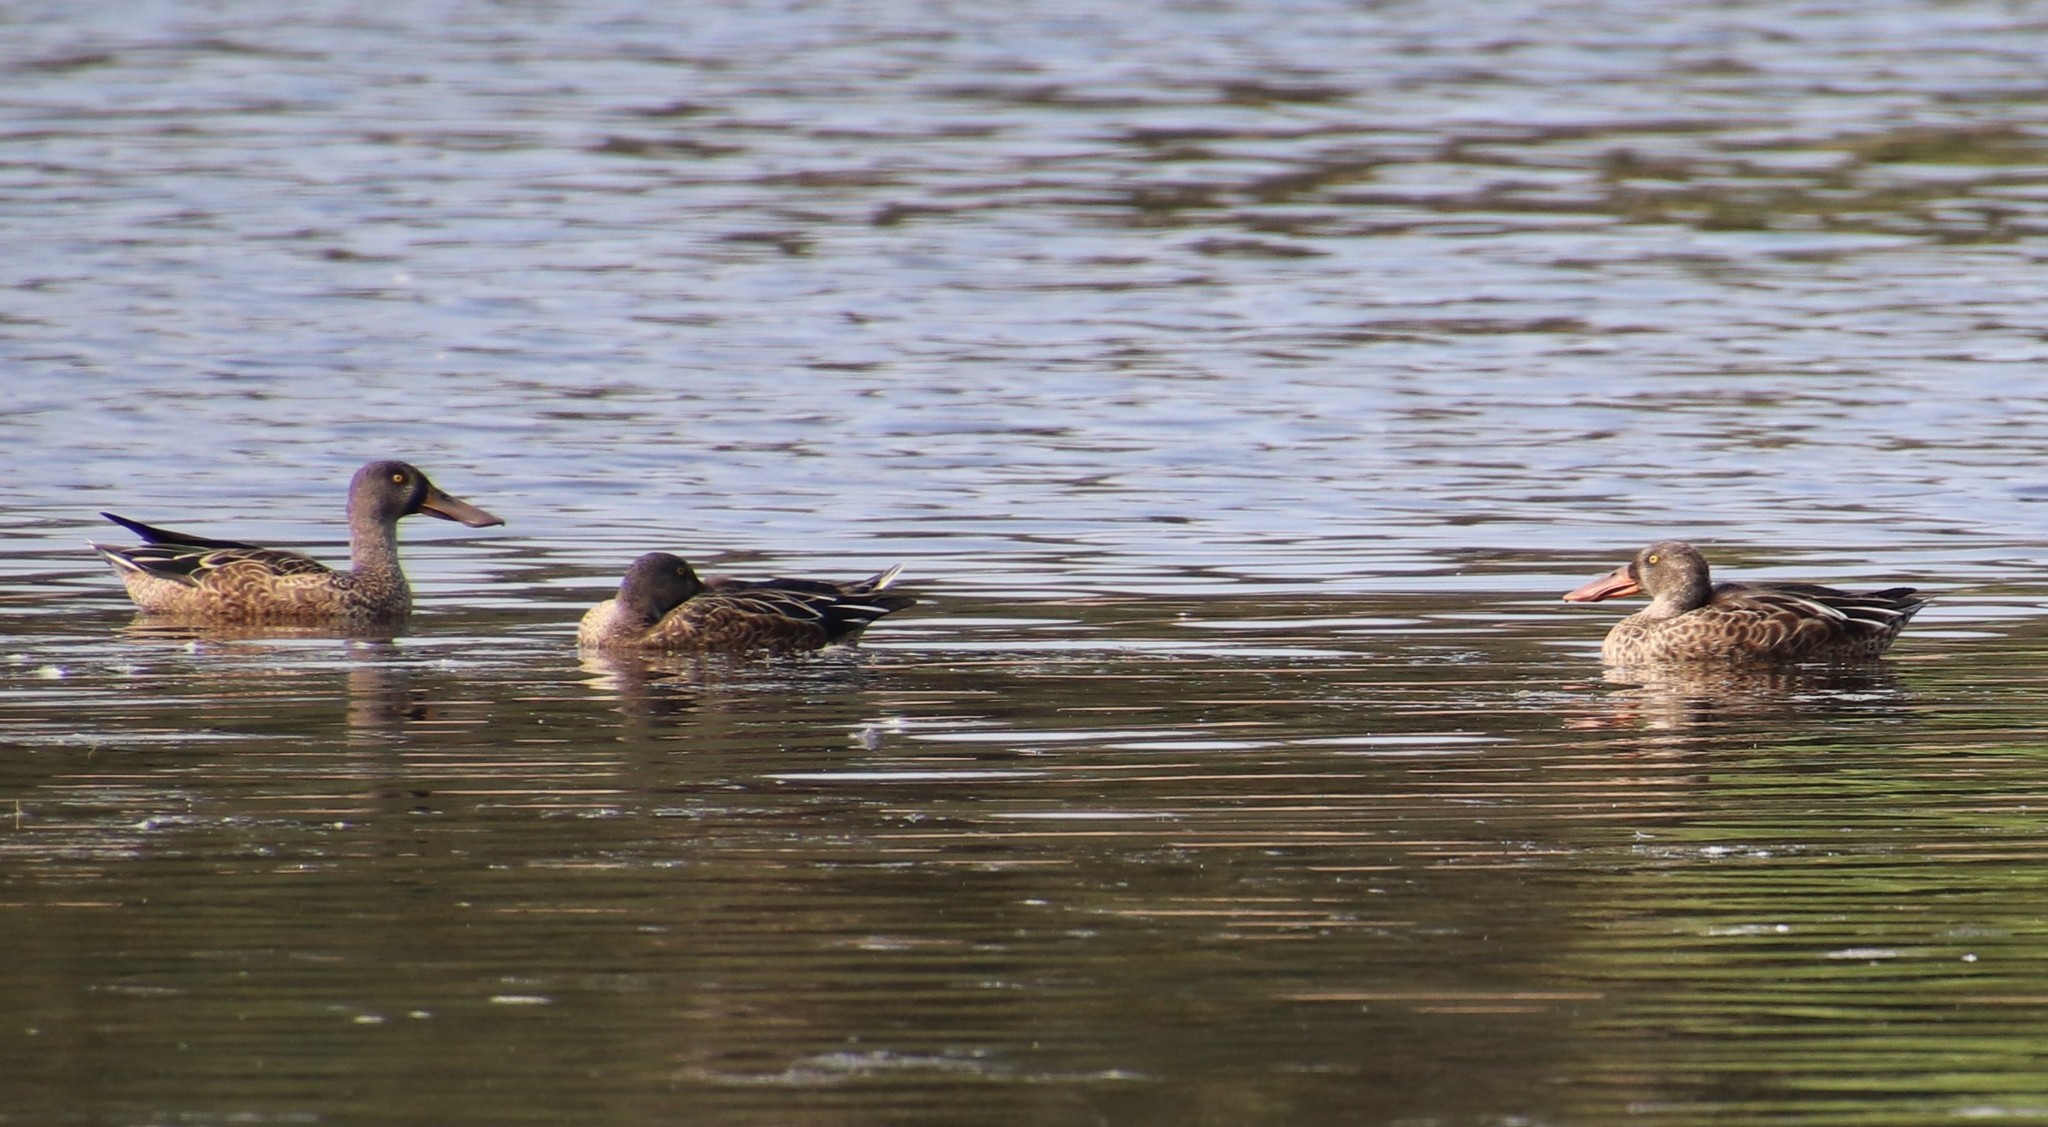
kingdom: Animalia
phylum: Chordata
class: Aves
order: Anseriformes
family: Anatidae
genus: Spatula
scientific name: Spatula clypeata
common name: Northern shoveler
